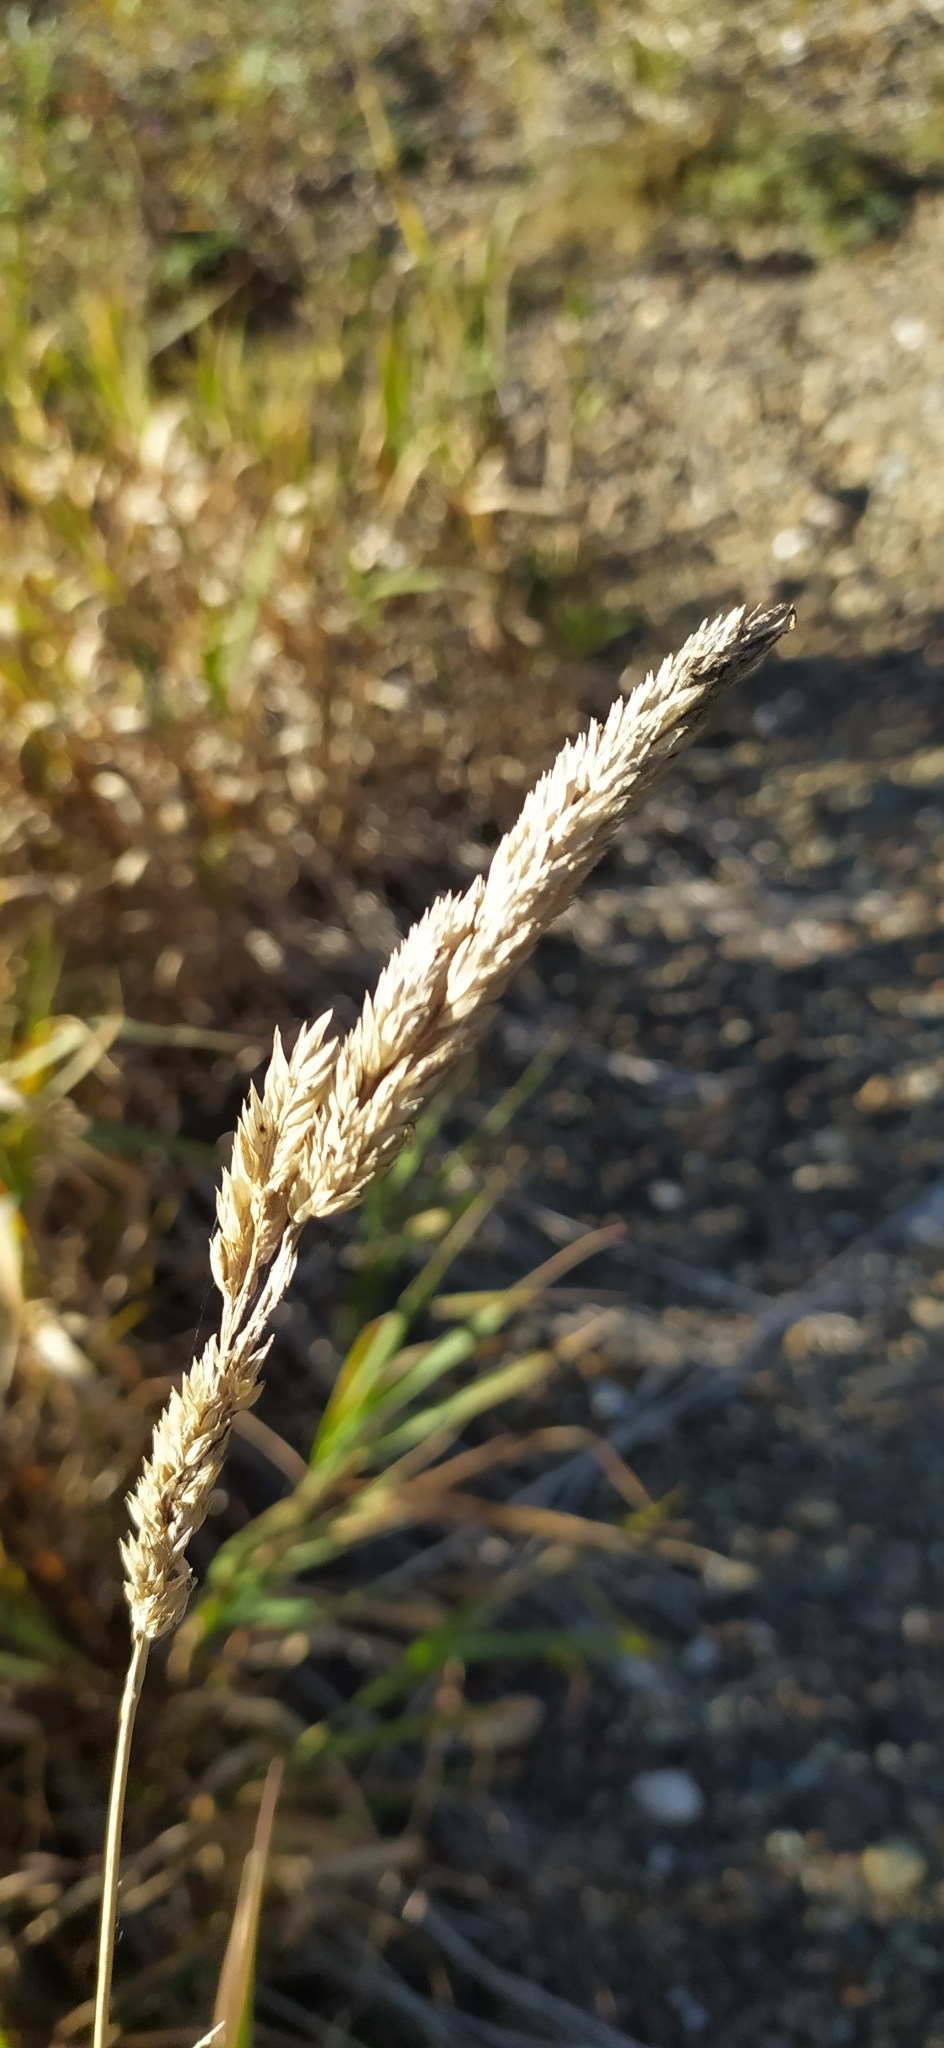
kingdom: Plantae
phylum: Tracheophyta
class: Liliopsida
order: Poales
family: Poaceae
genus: Phalaris
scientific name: Phalaris arundinacea
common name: Reed canary-grass
